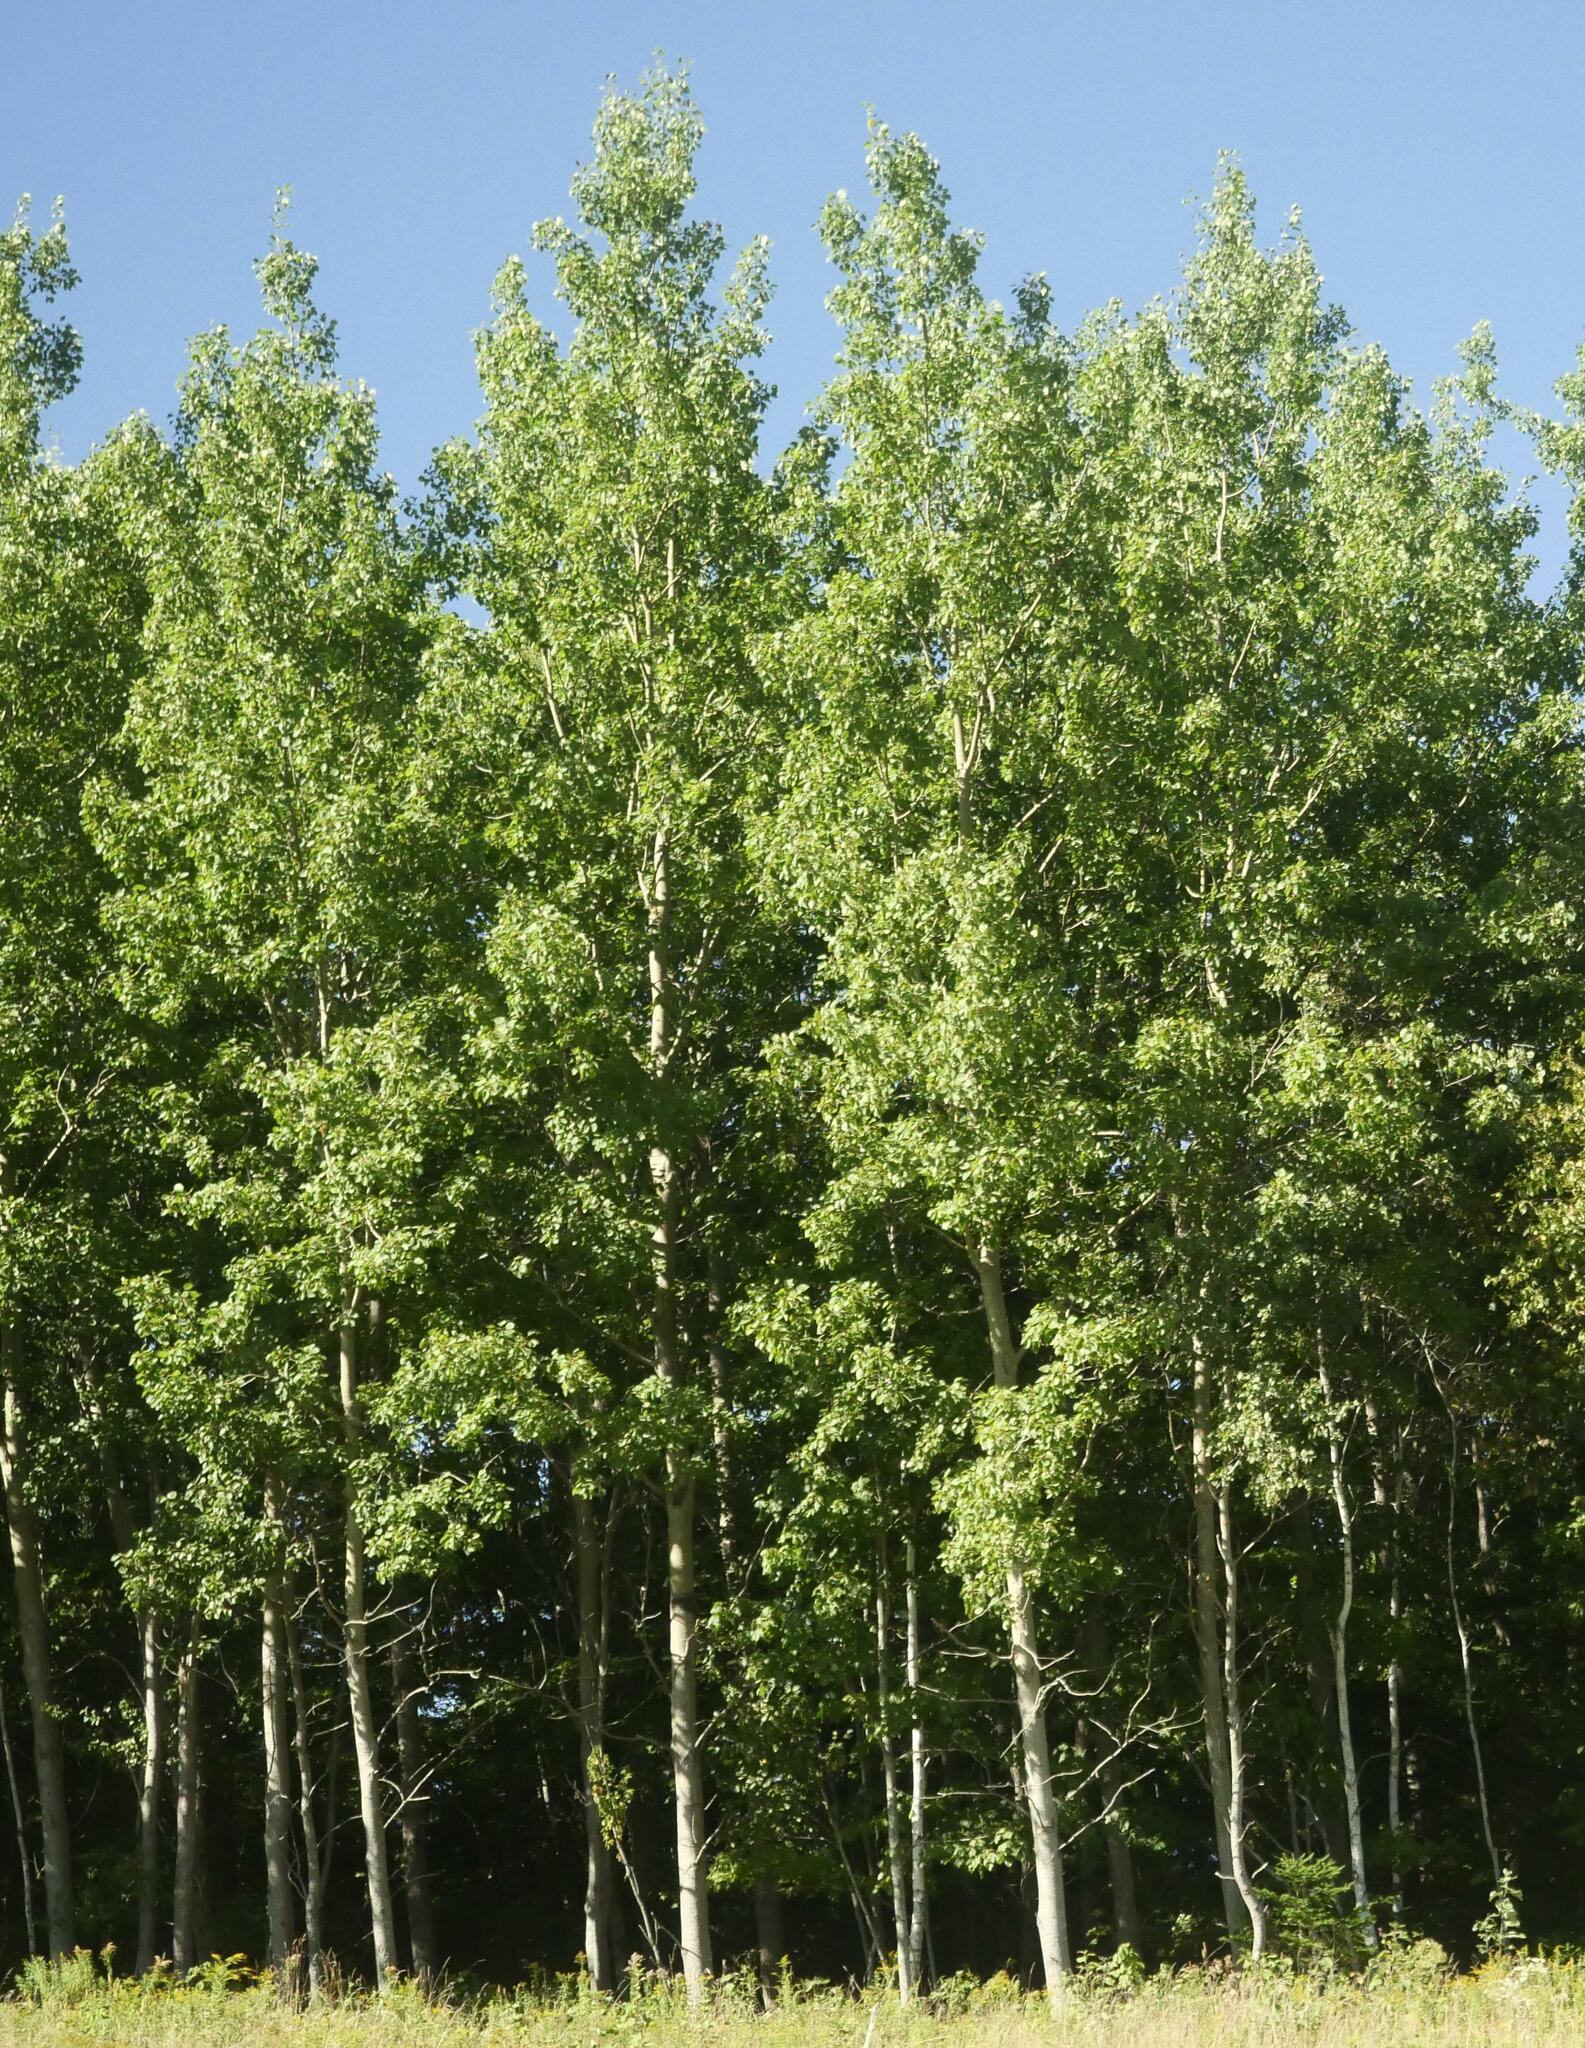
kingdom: Plantae
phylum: Tracheophyta
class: Magnoliopsida
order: Malpighiales
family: Salicaceae
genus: Populus
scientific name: Populus tremuloides
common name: Quaking aspen
